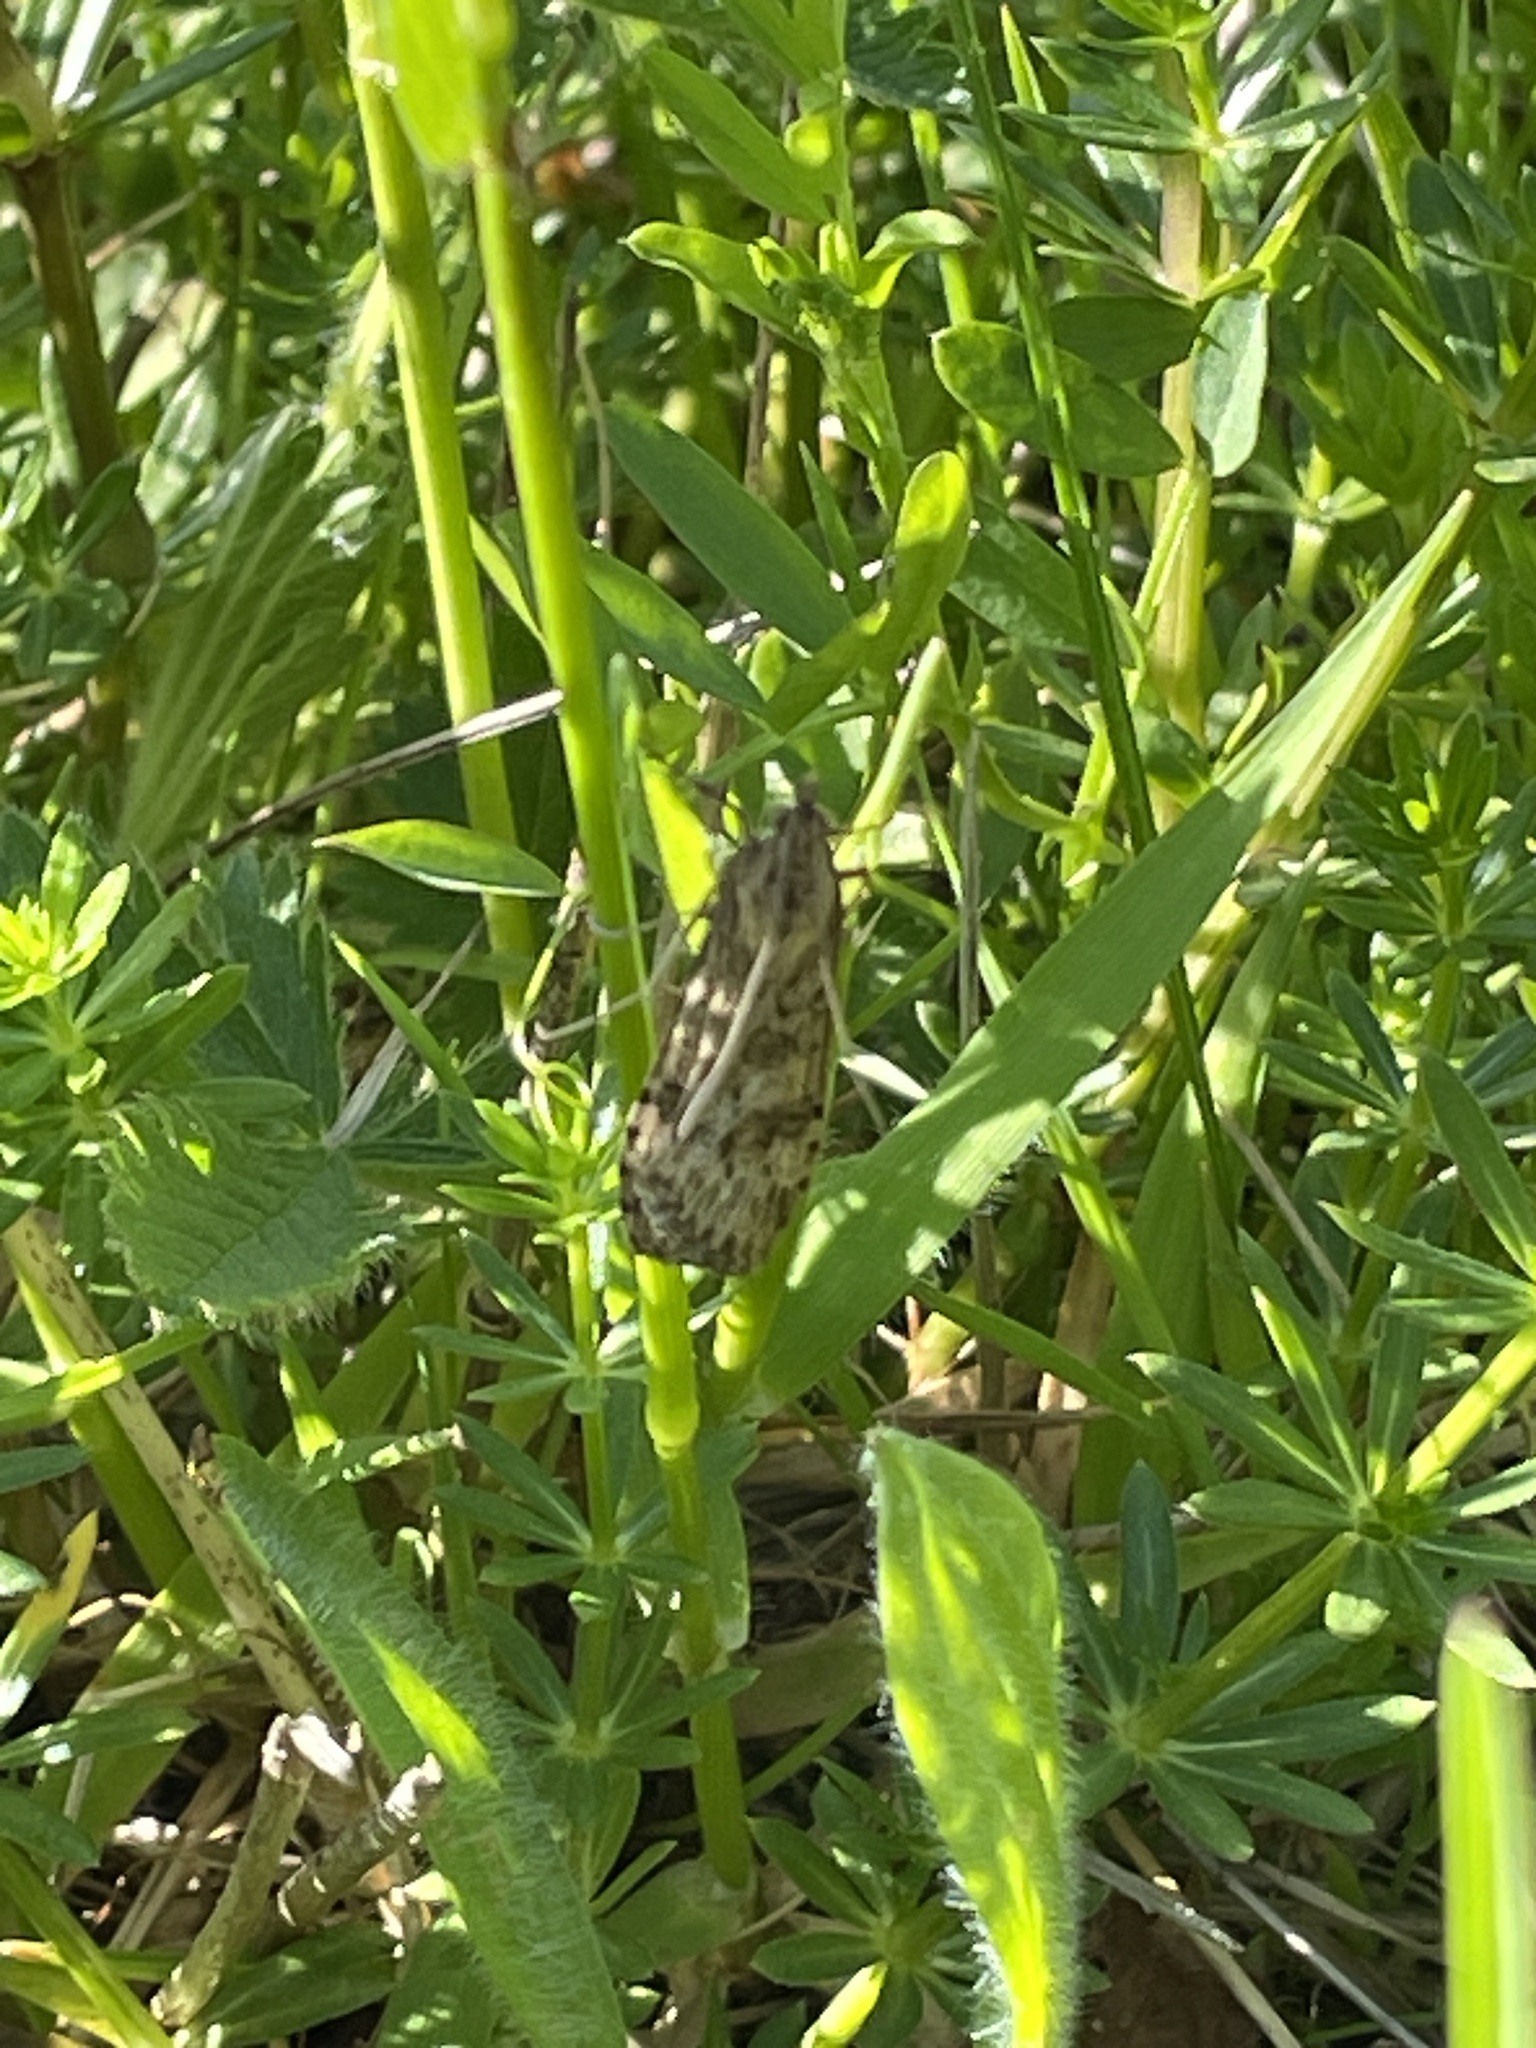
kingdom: Animalia
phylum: Arthropoda
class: Insecta
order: Lepidoptera
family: Crambidae
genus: Nomophila
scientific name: Nomophila nearctica
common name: American rush veneer
